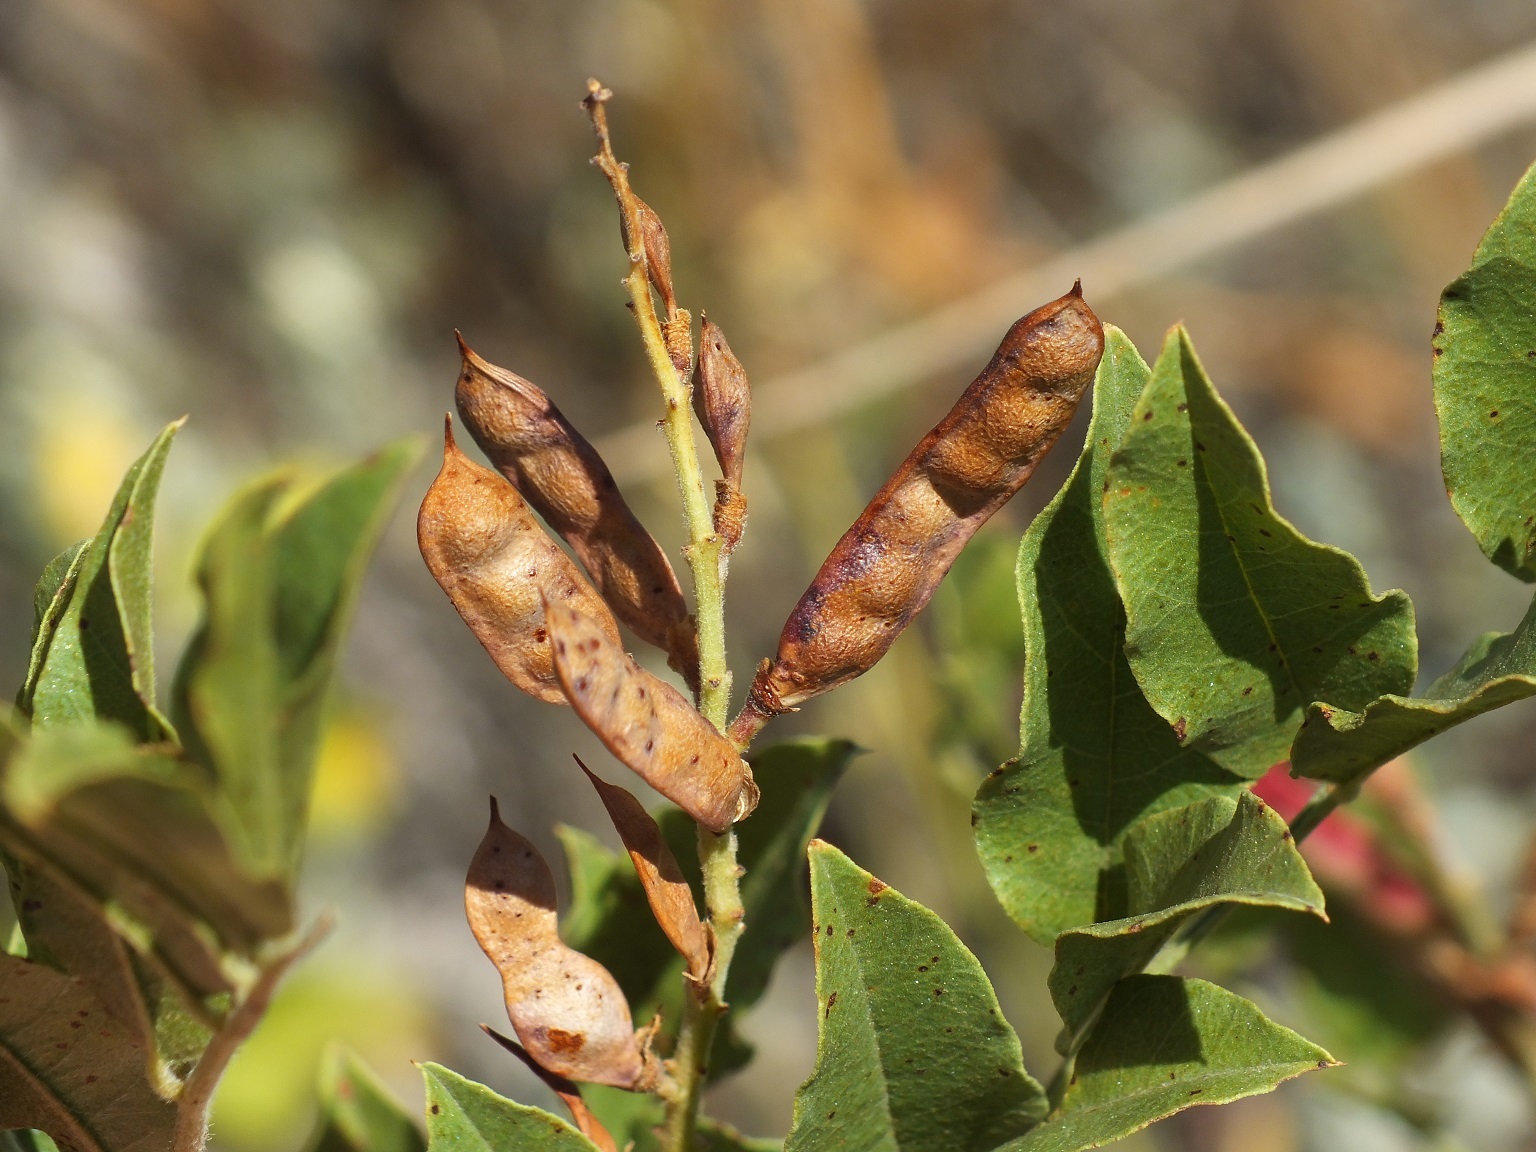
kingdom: Plantae
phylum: Tracheophyta
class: Magnoliopsida
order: Fabales
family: Fabaceae
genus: Glycyrrhiza
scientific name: Glycyrrhiza glabra
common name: Liquorice
